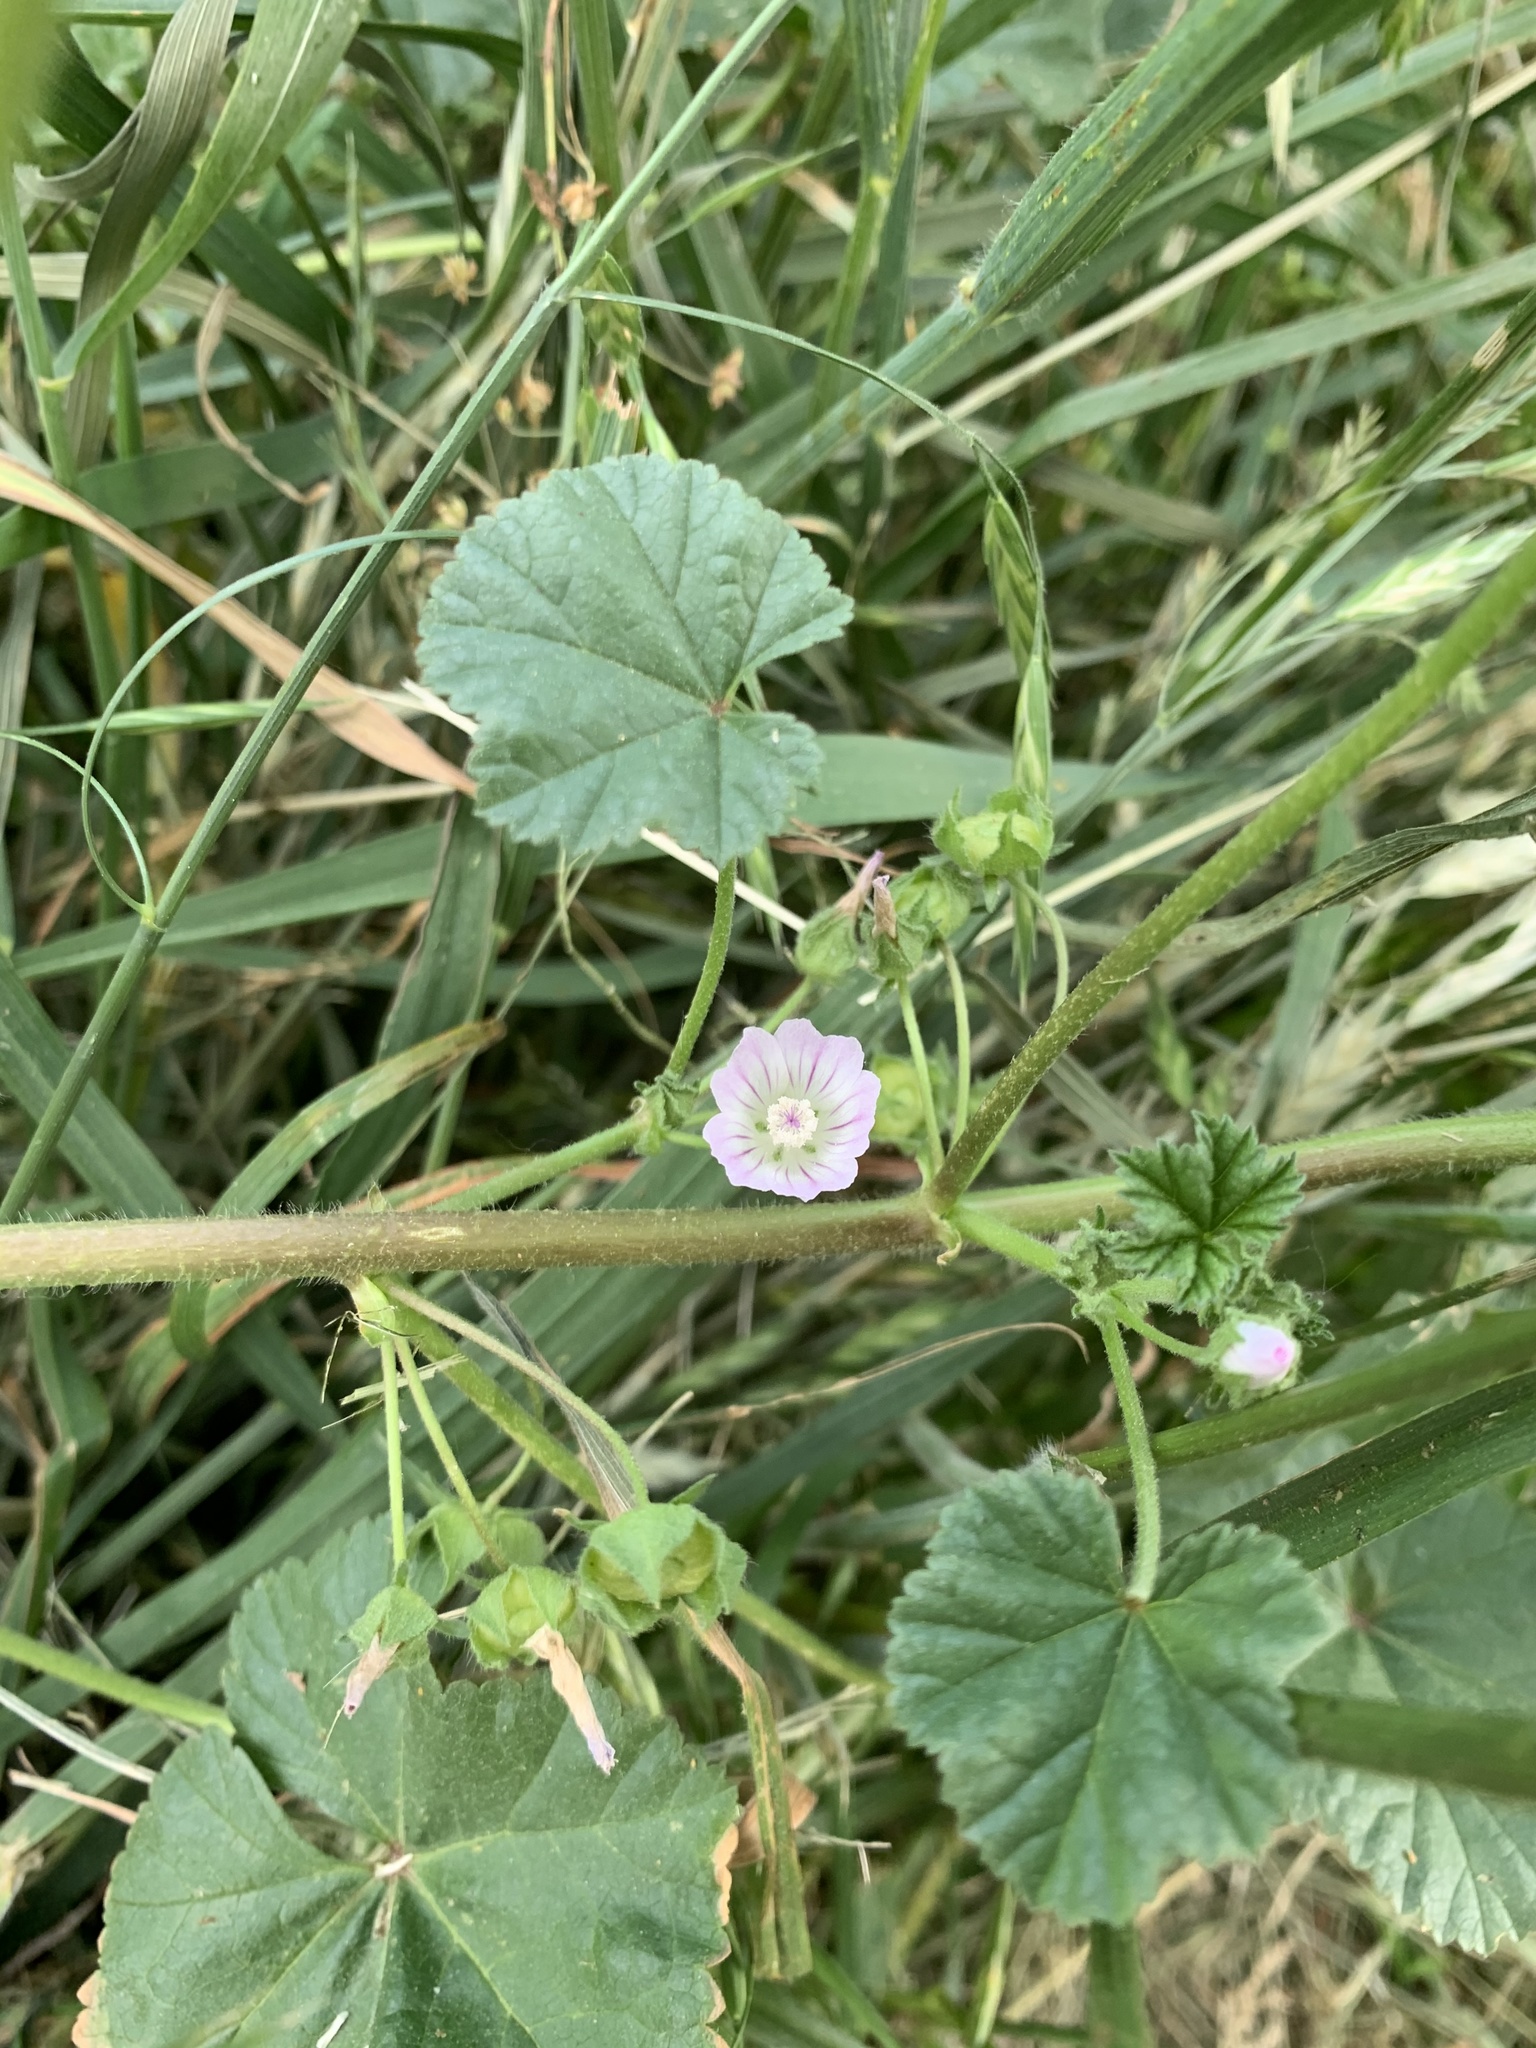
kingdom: Plantae
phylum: Tracheophyta
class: Magnoliopsida
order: Malvales
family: Malvaceae
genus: Malva
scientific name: Malva neglecta
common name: Common mallow
